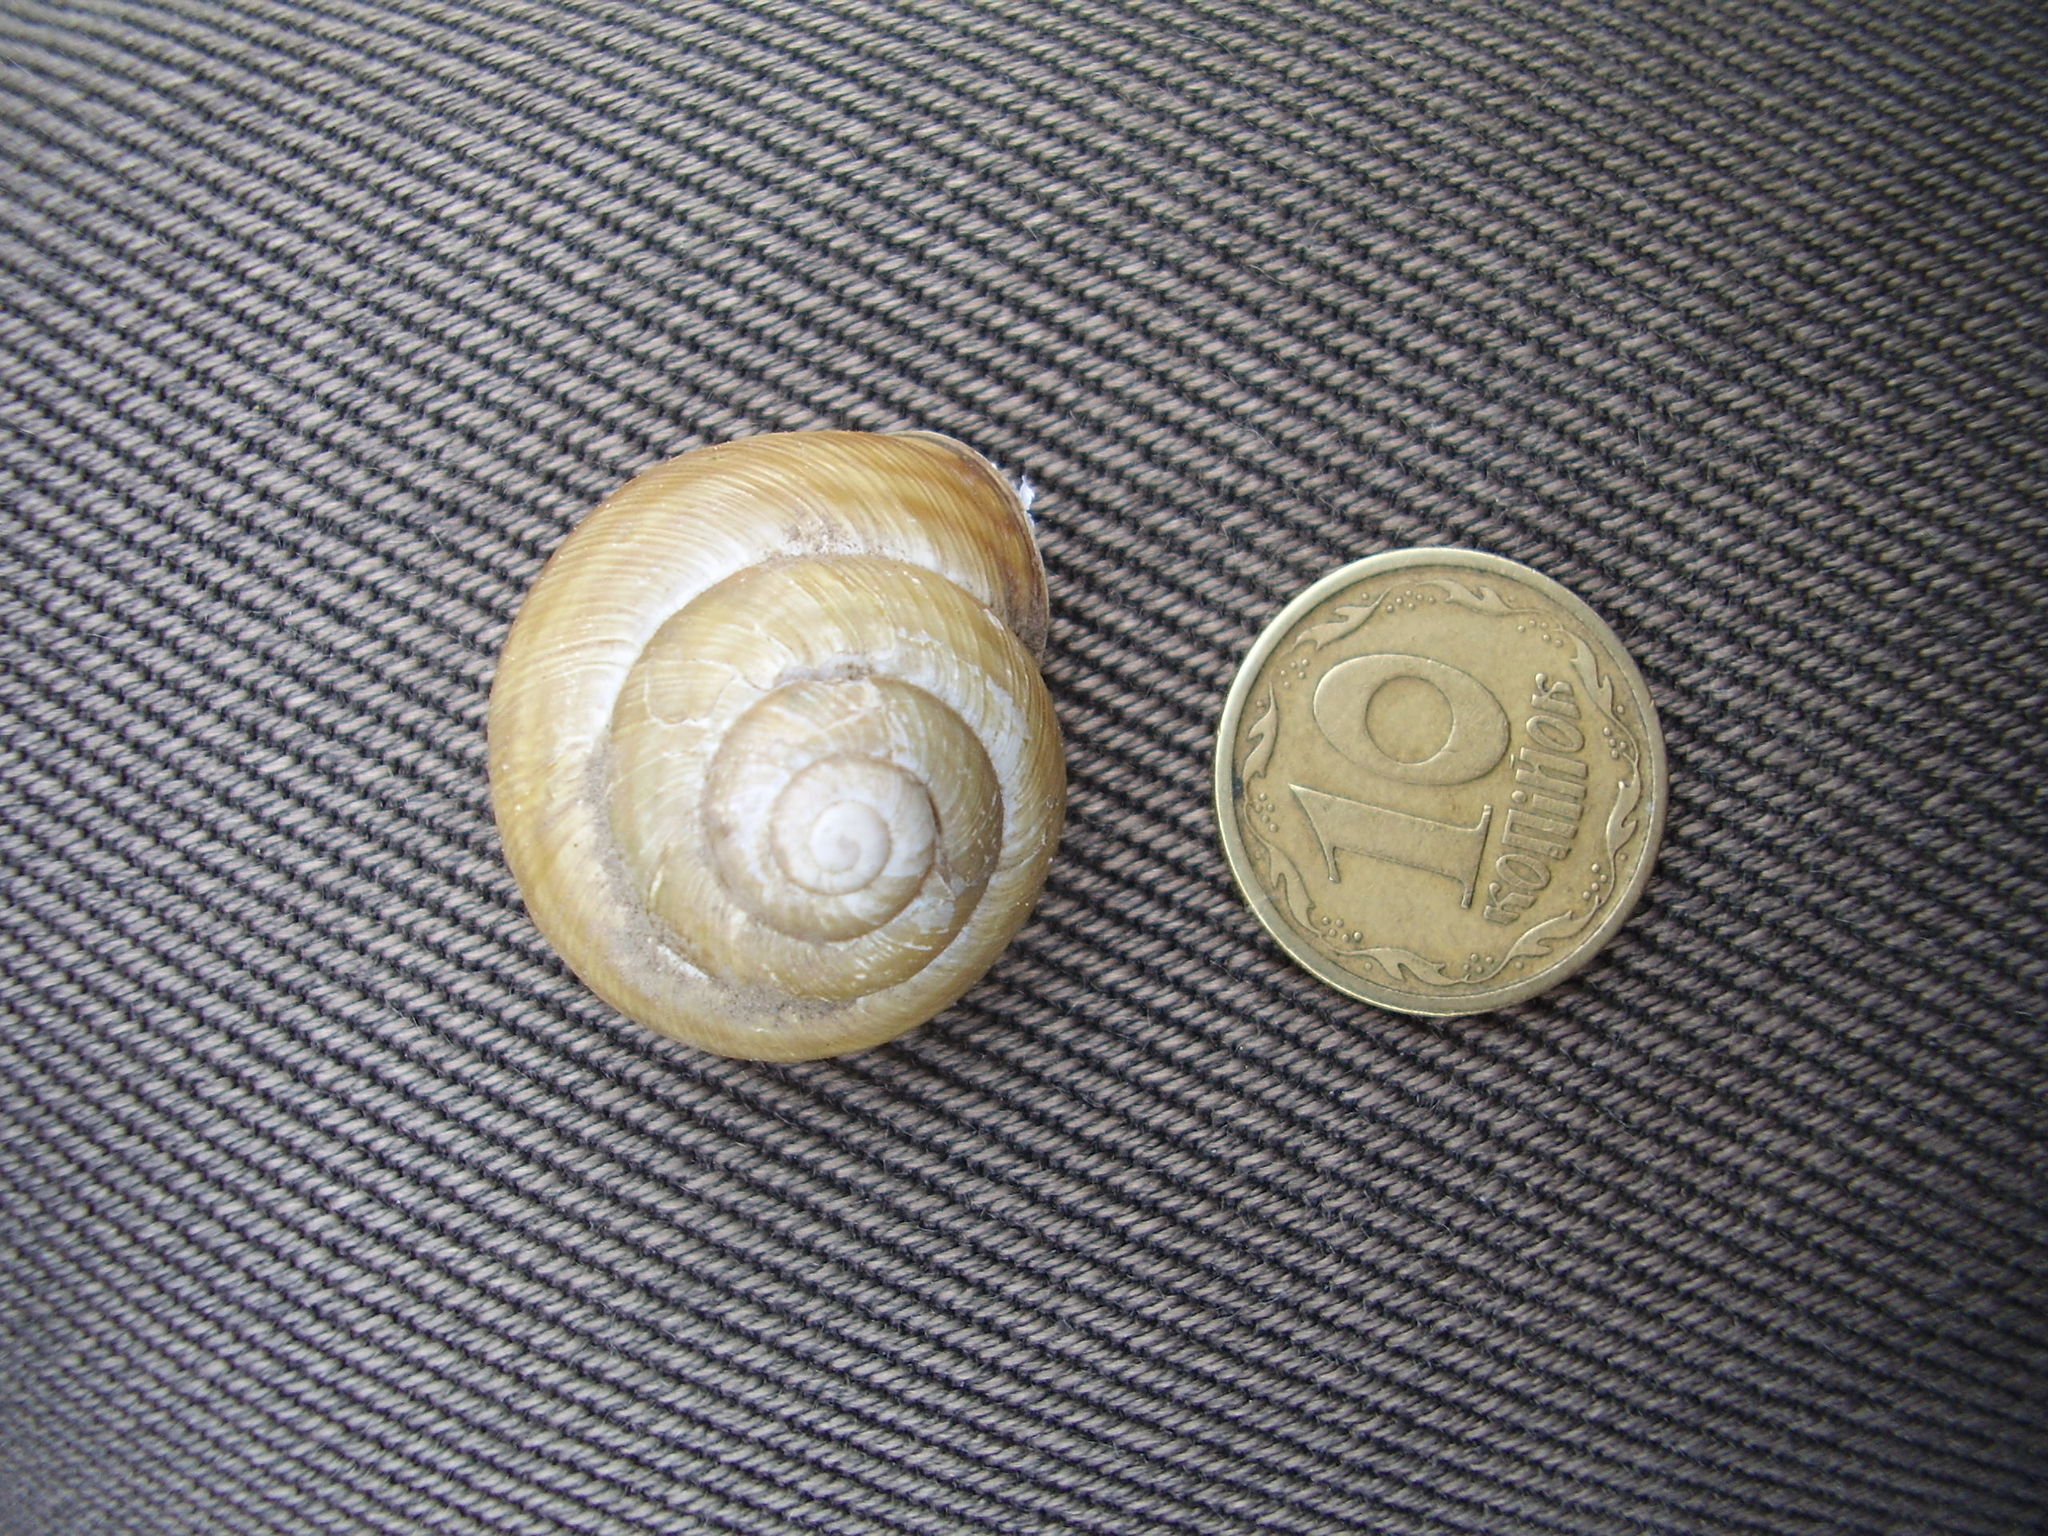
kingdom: Animalia
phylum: Mollusca
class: Gastropoda
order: Stylommatophora
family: Helicidae
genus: Caucasotachea
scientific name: Caucasotachea vindobonensis
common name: European helicid land snail
